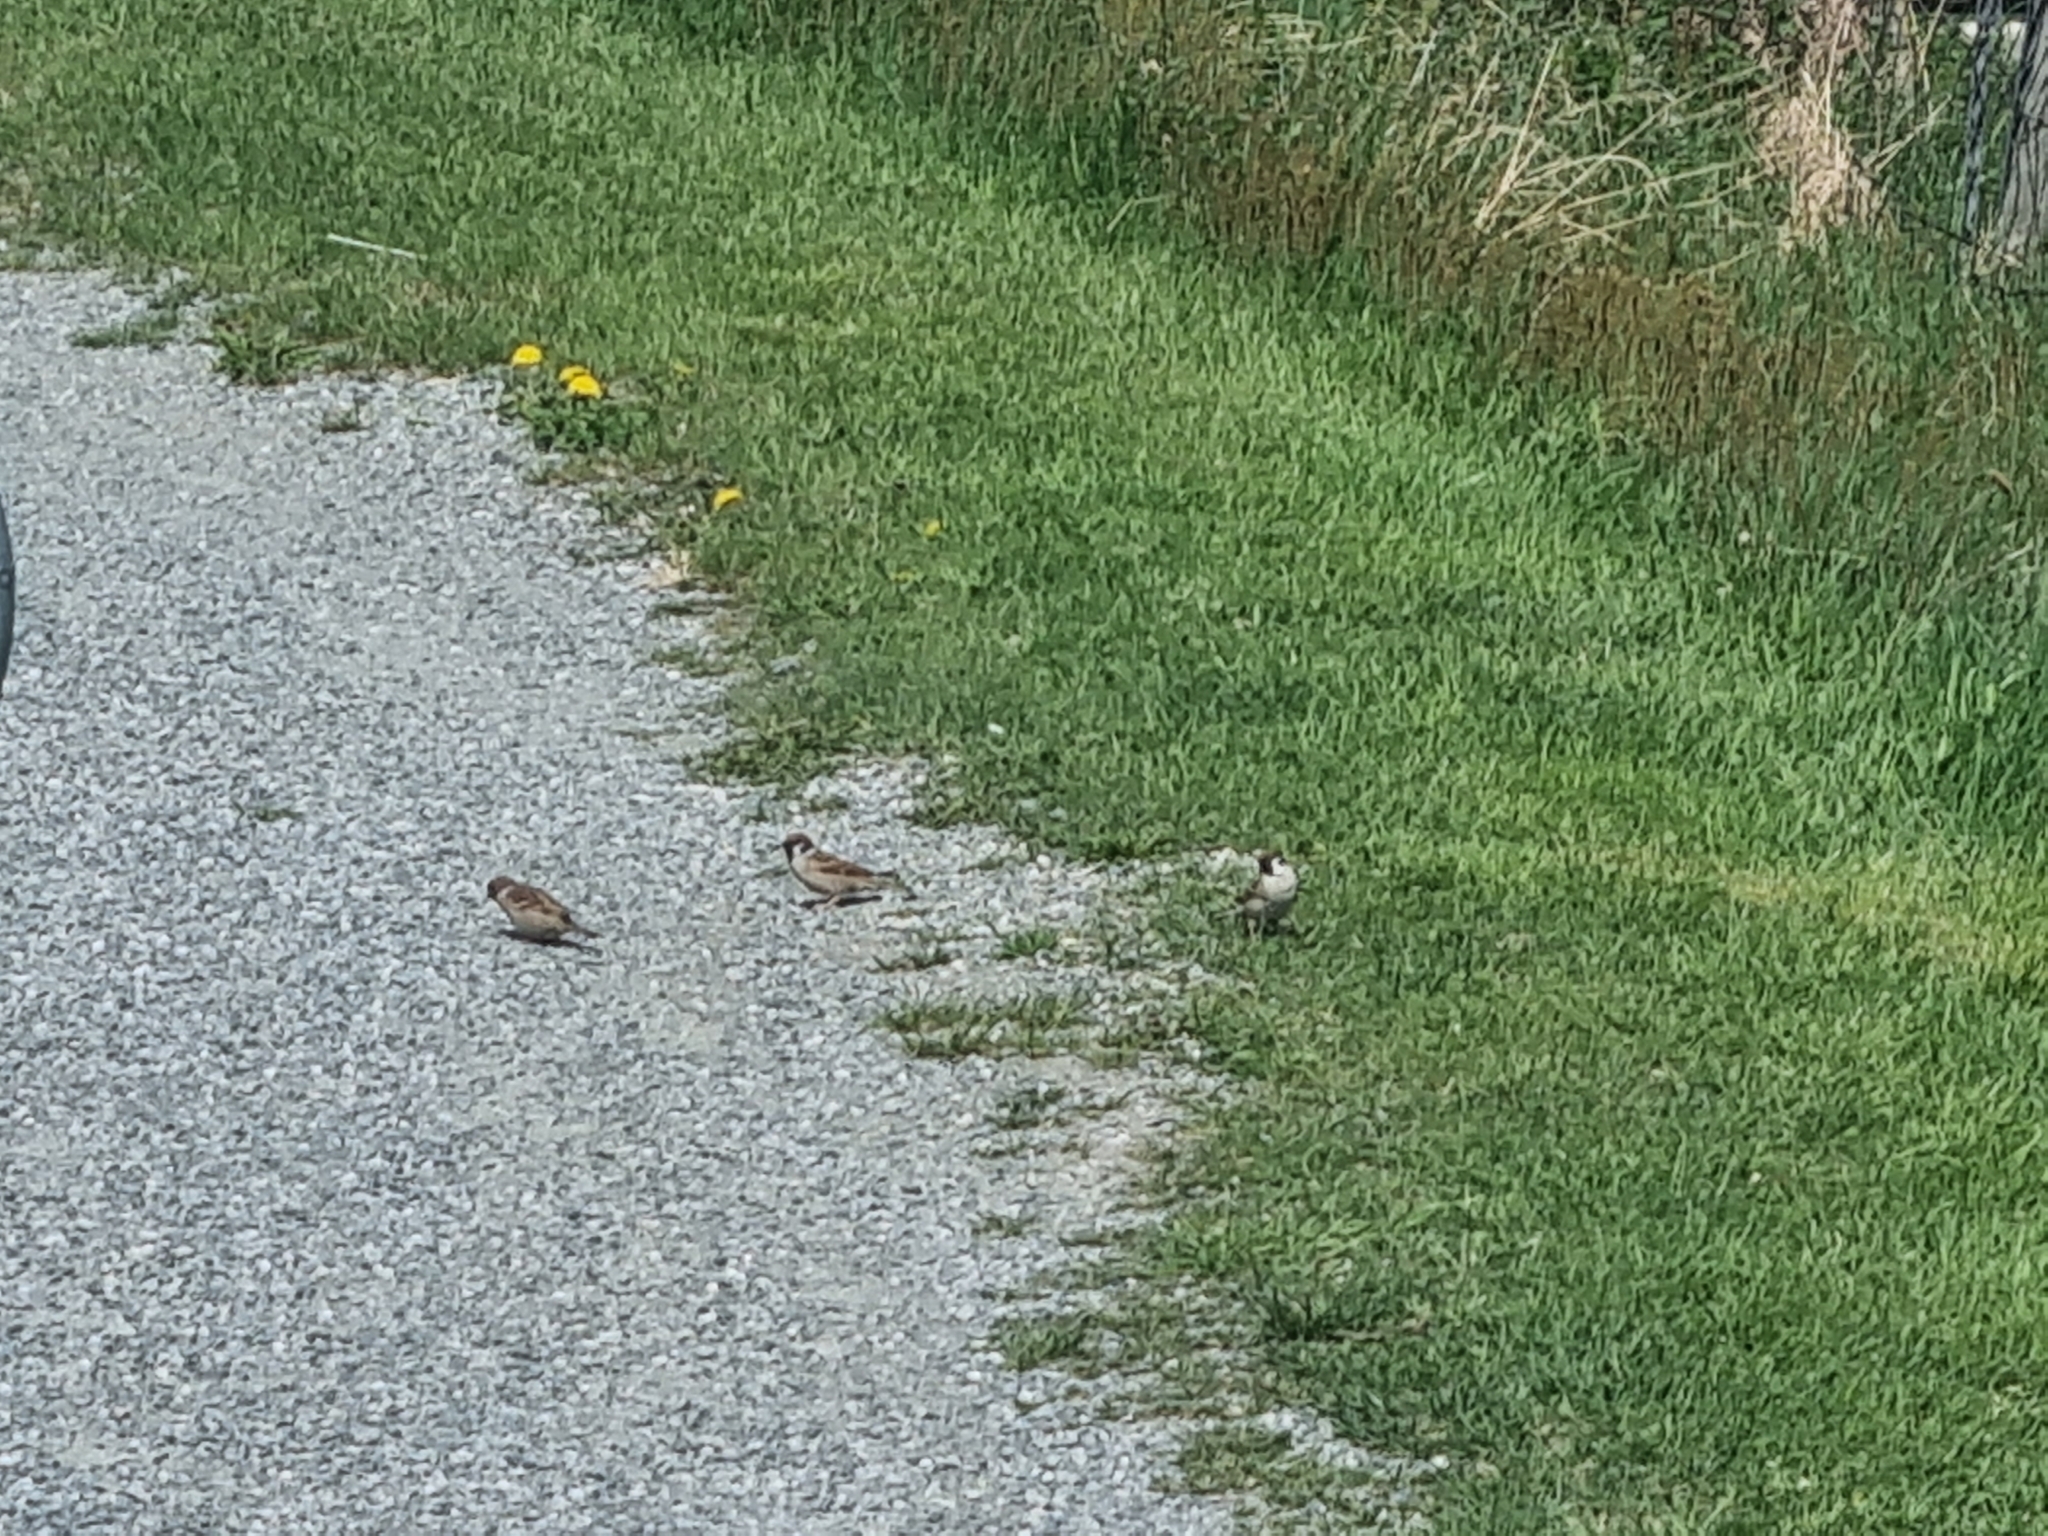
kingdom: Animalia
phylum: Chordata
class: Aves
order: Passeriformes
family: Passeridae
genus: Passer
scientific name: Passer montanus
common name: Eurasian tree sparrow
